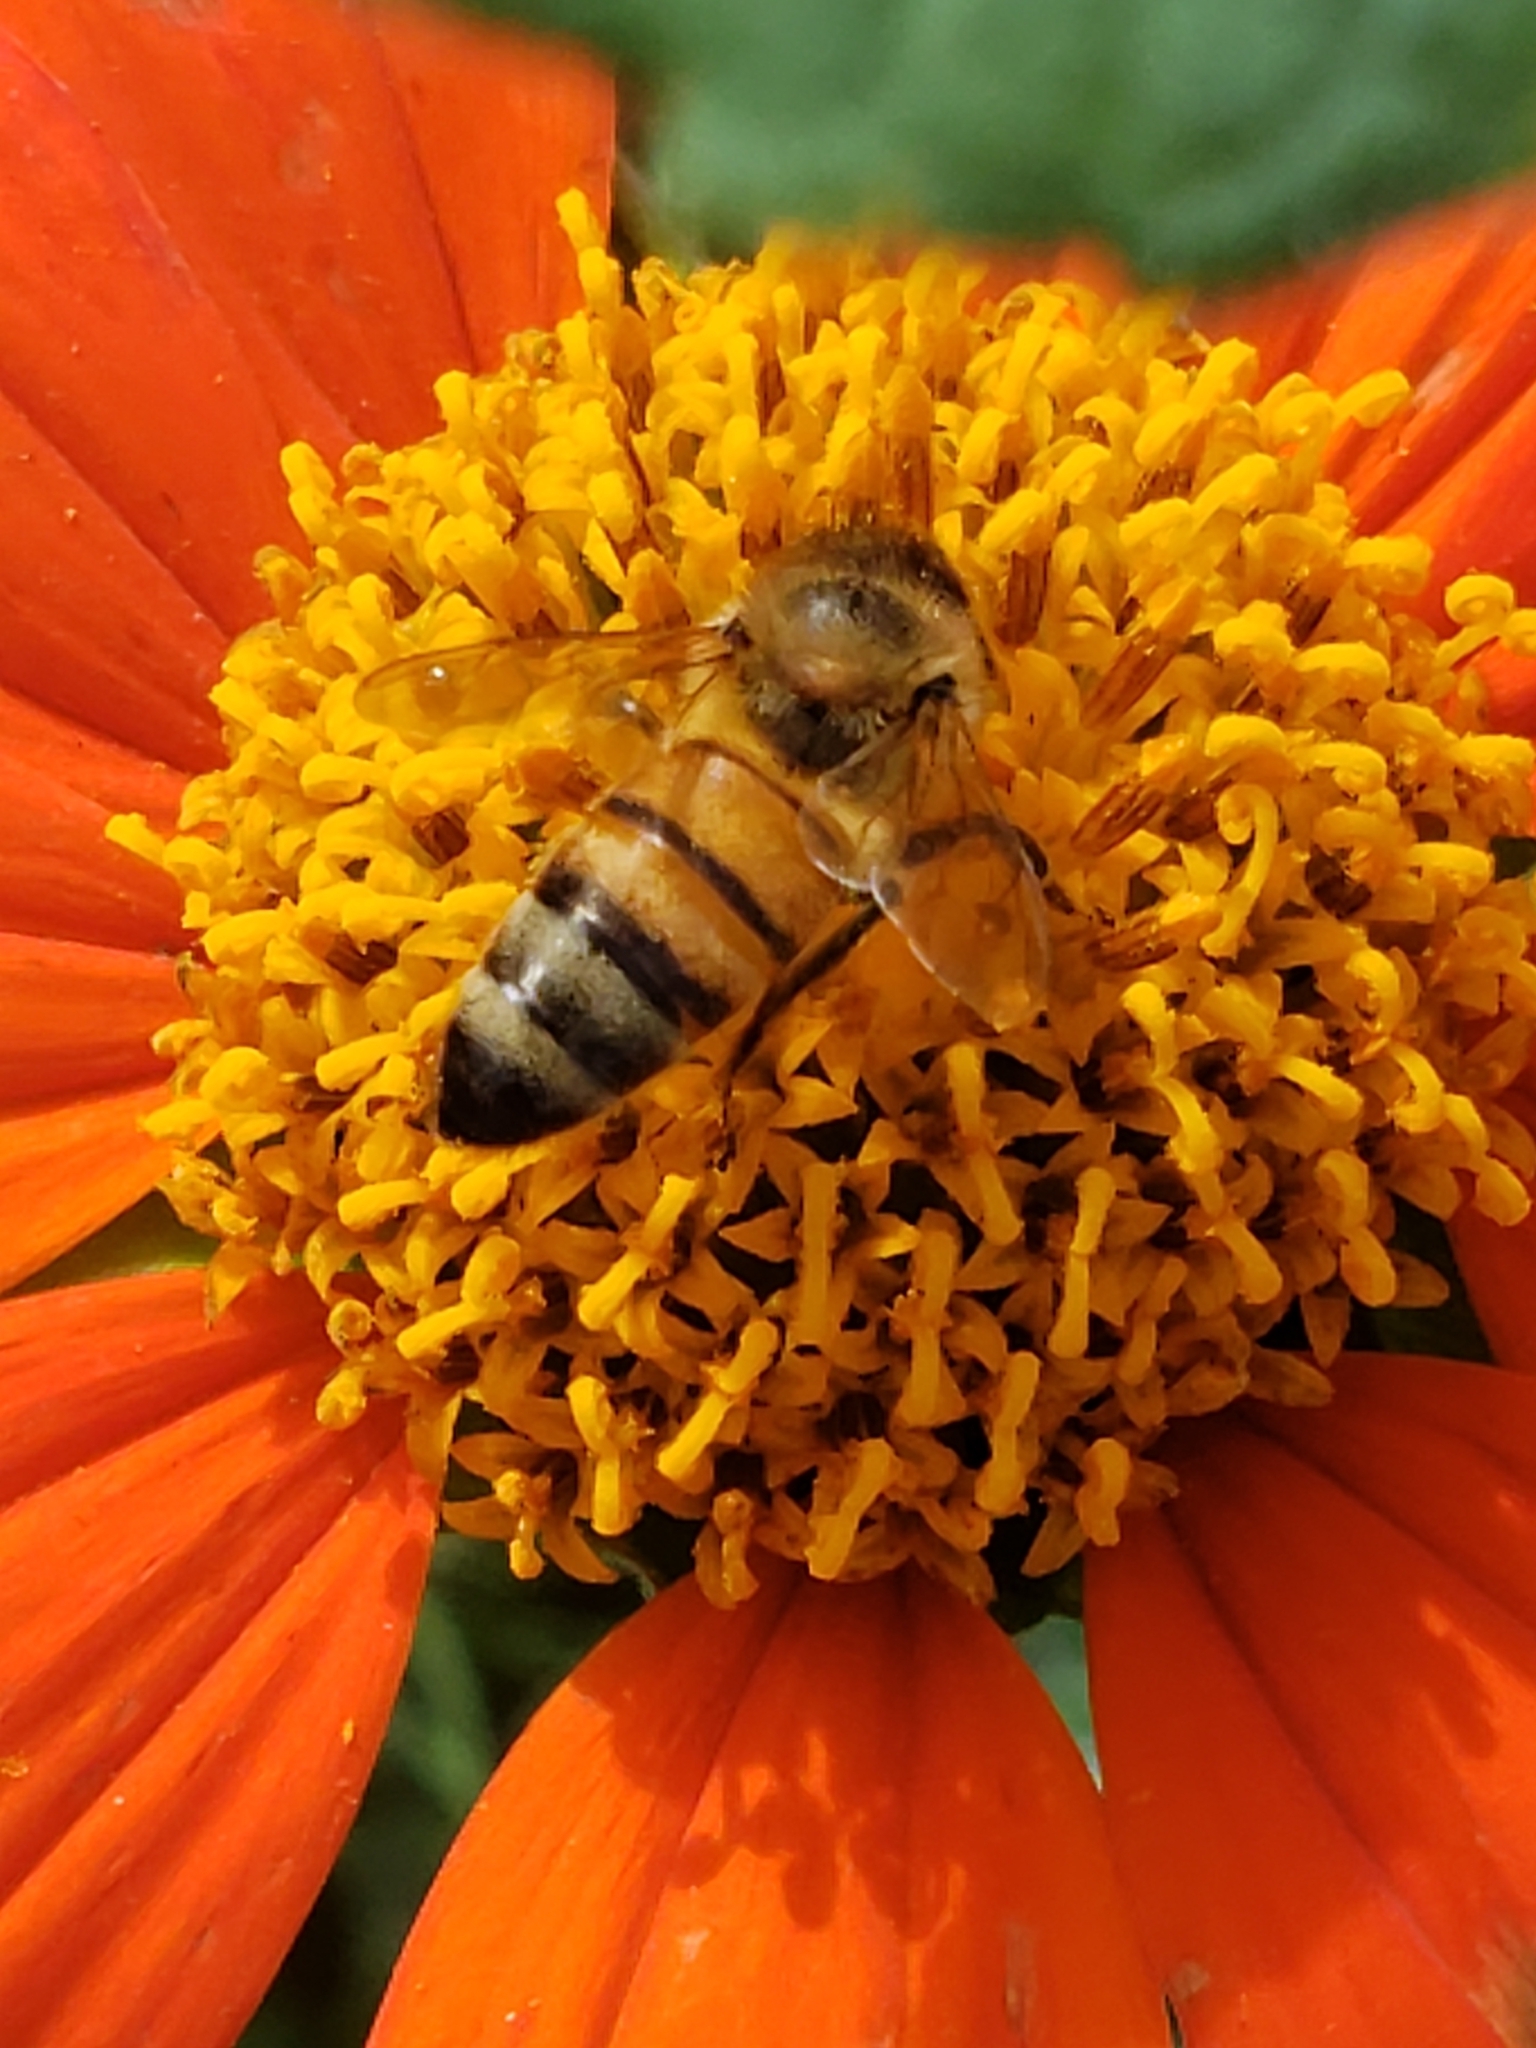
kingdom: Animalia
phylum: Arthropoda
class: Insecta
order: Hymenoptera
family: Apidae
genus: Apis
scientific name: Apis mellifera
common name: Honey bee
